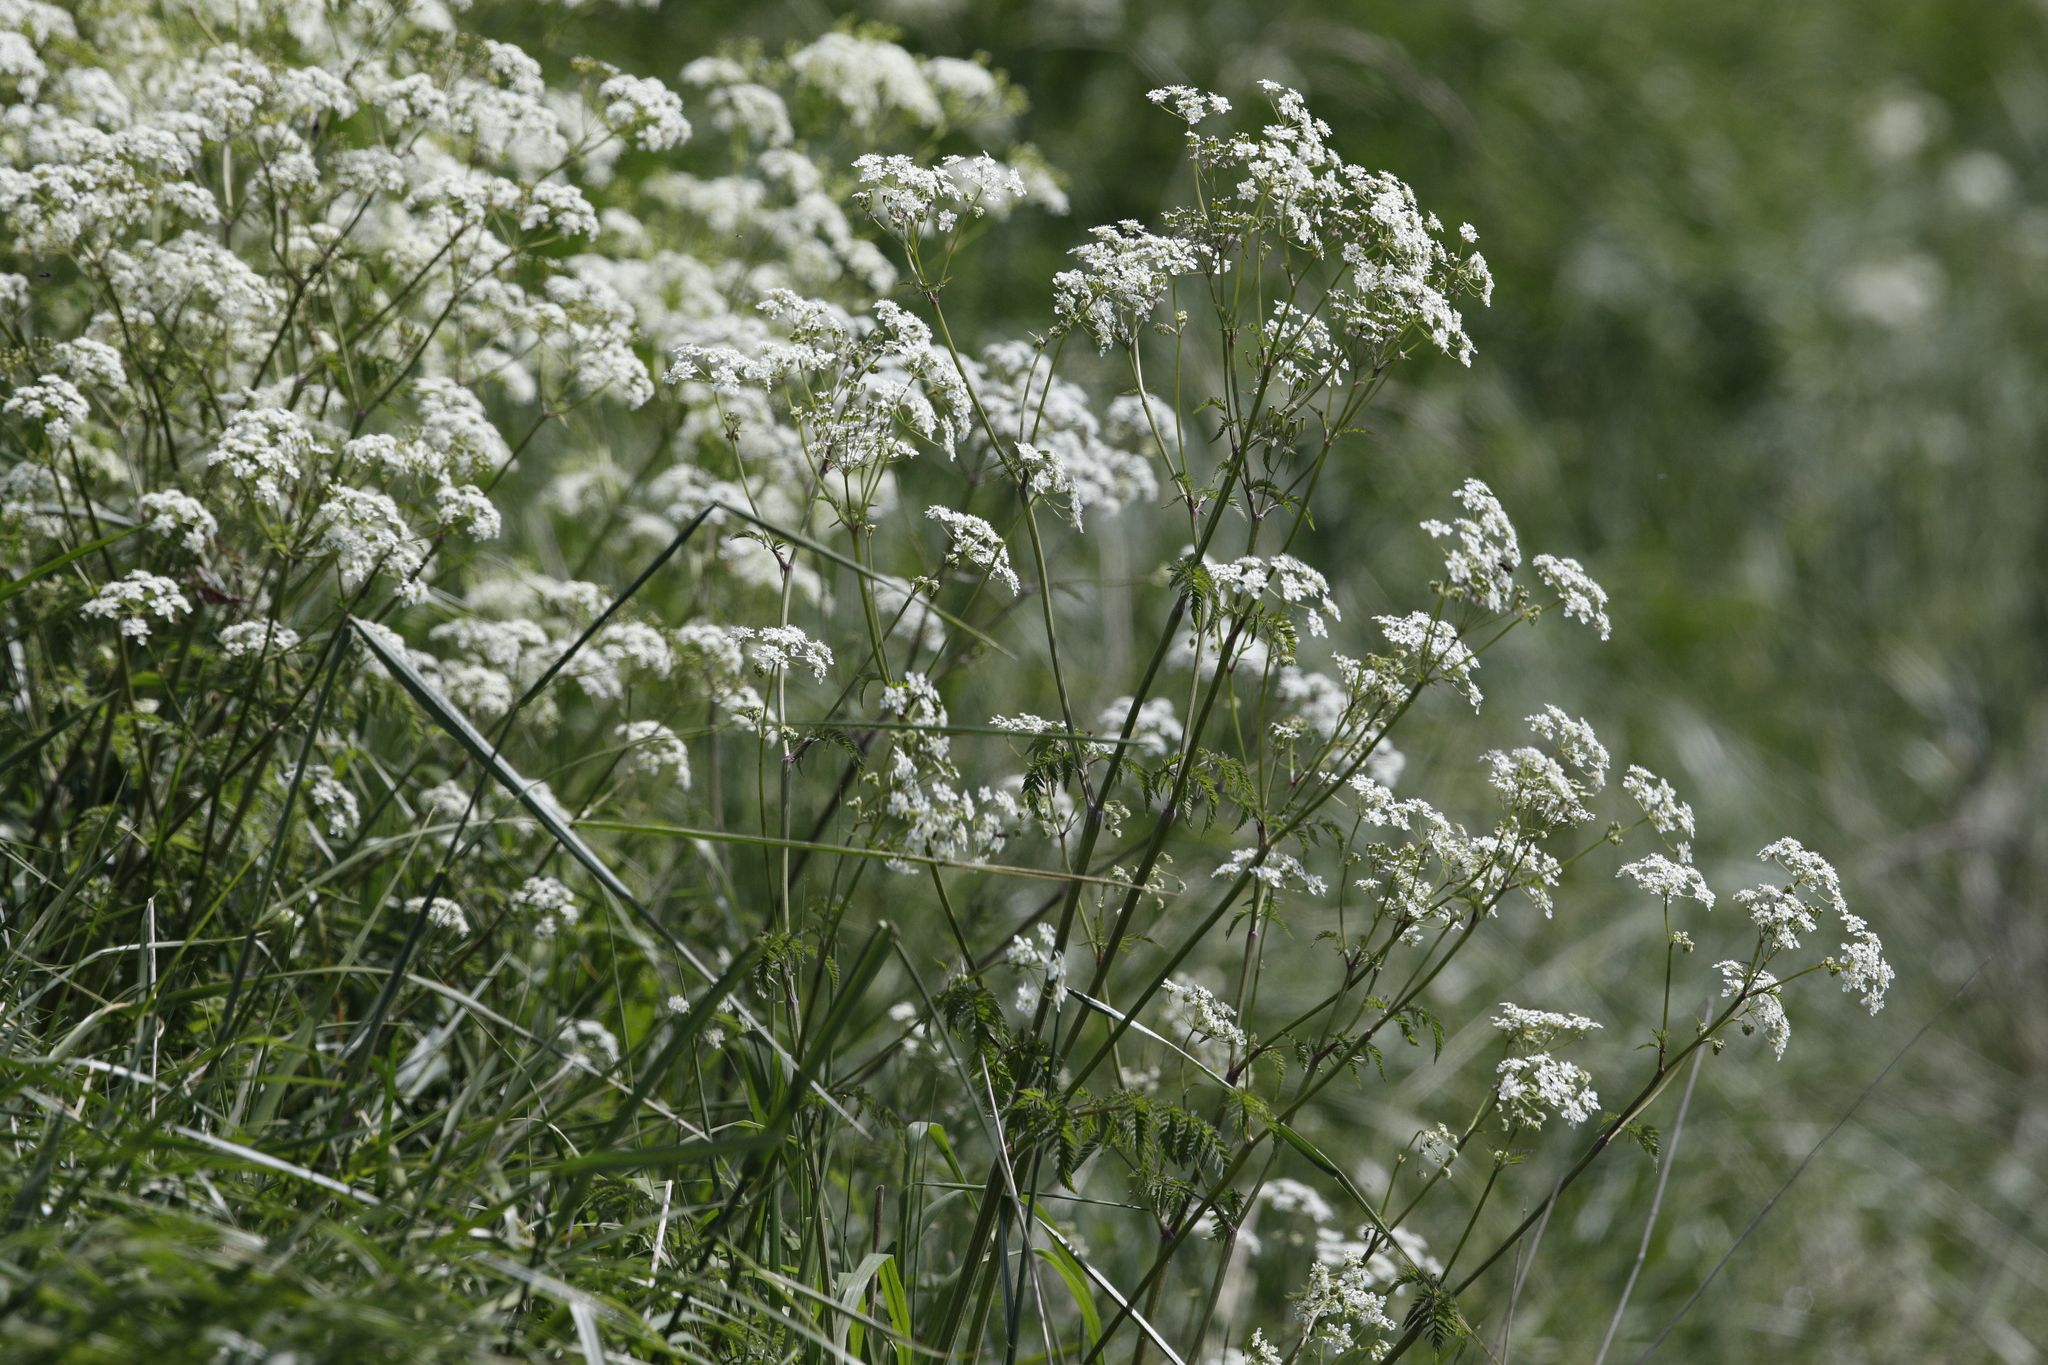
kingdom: Plantae
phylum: Tracheophyta
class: Magnoliopsida
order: Apiales
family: Apiaceae
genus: Anthriscus
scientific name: Anthriscus sylvestris
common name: Cow parsley
